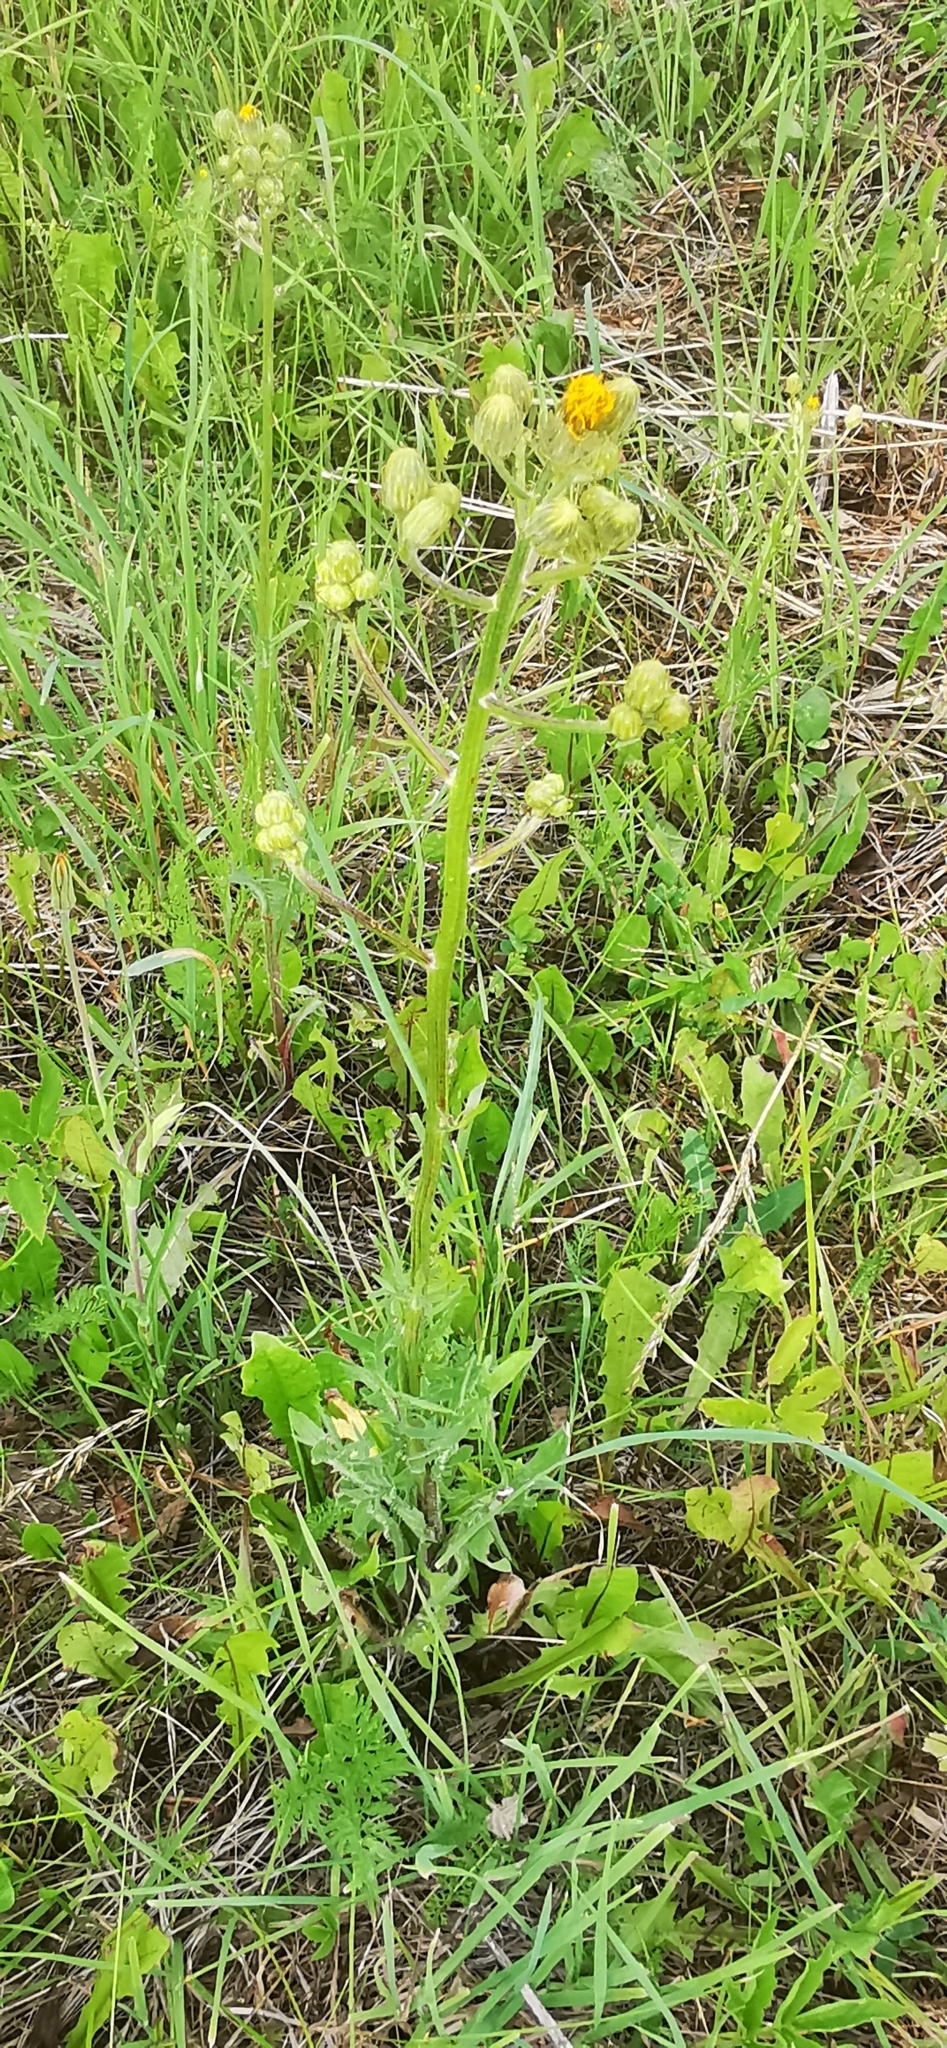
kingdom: Plantae
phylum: Tracheophyta
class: Magnoliopsida
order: Asterales
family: Asteraceae
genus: Crepis
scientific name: Crepis biennis
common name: Rough hawk's-beard
